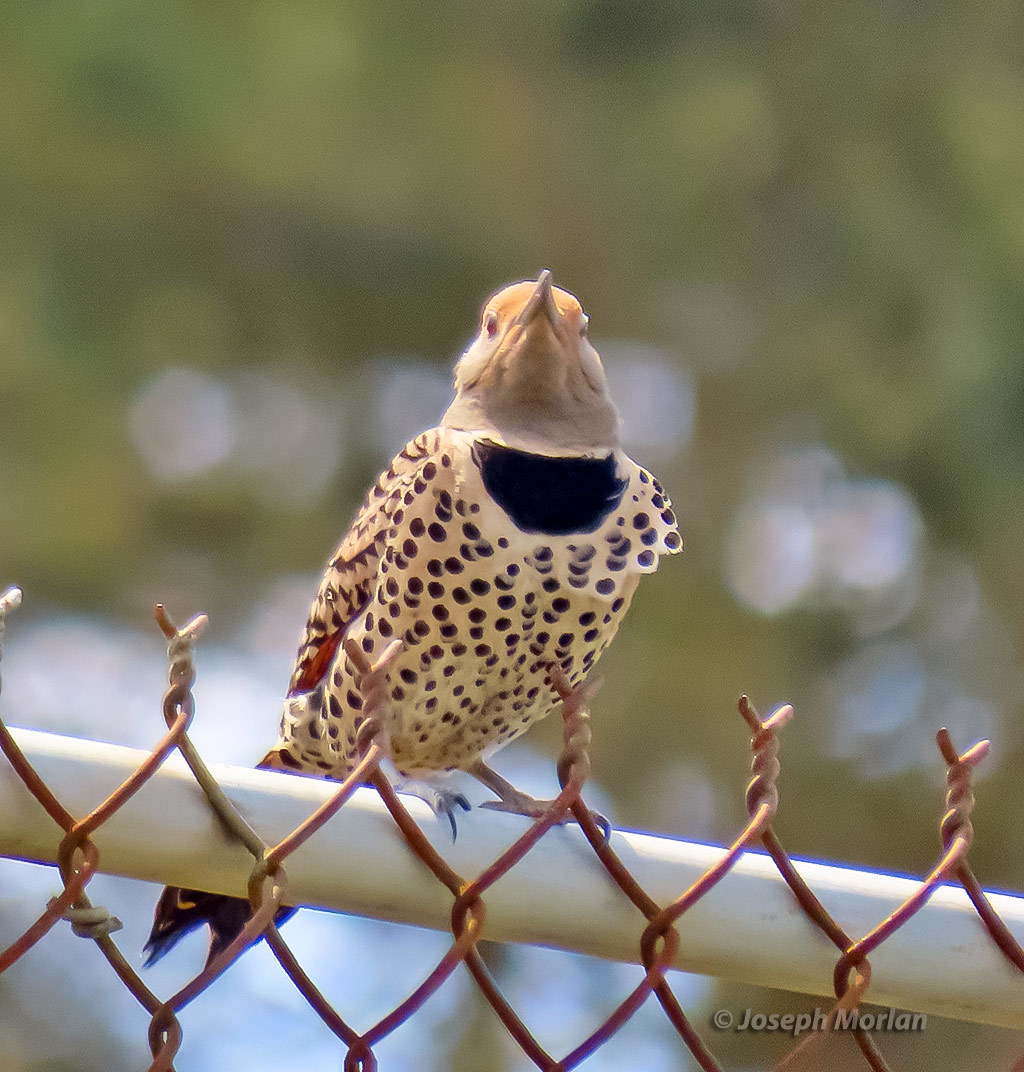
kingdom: Animalia
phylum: Chordata
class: Aves
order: Piciformes
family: Picidae
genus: Colaptes
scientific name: Colaptes auratus
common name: Northern flicker
